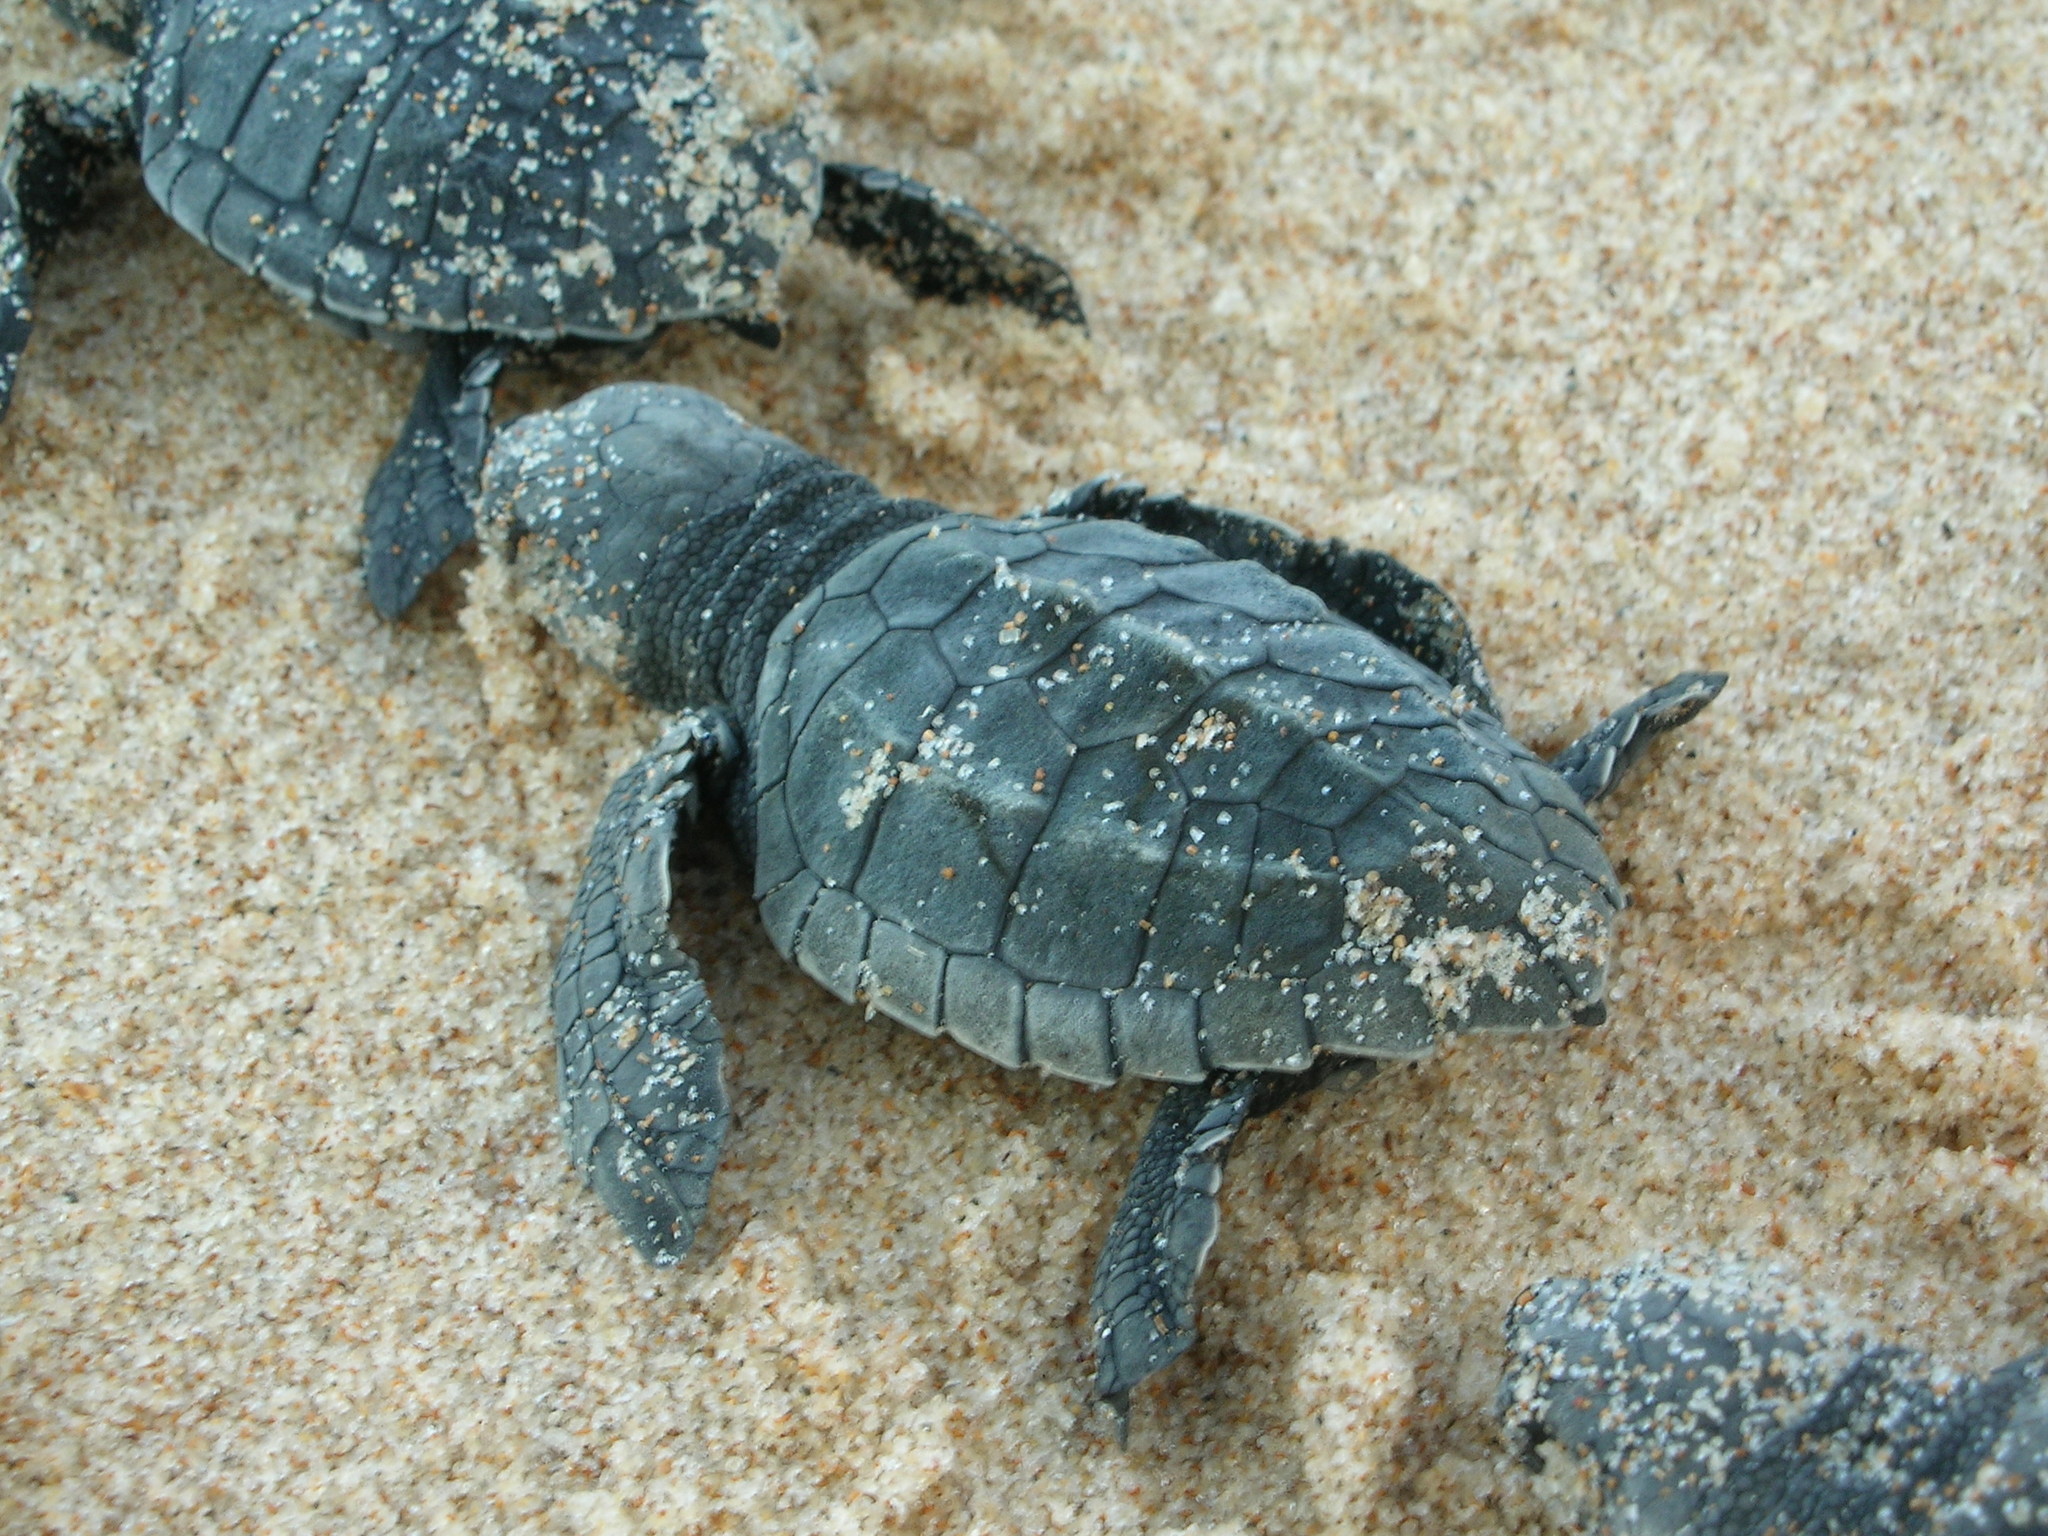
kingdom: Animalia
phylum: Chordata
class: Testudines
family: Cheloniidae
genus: Lepidochelys
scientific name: Lepidochelys olivacea
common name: Olive ridley
